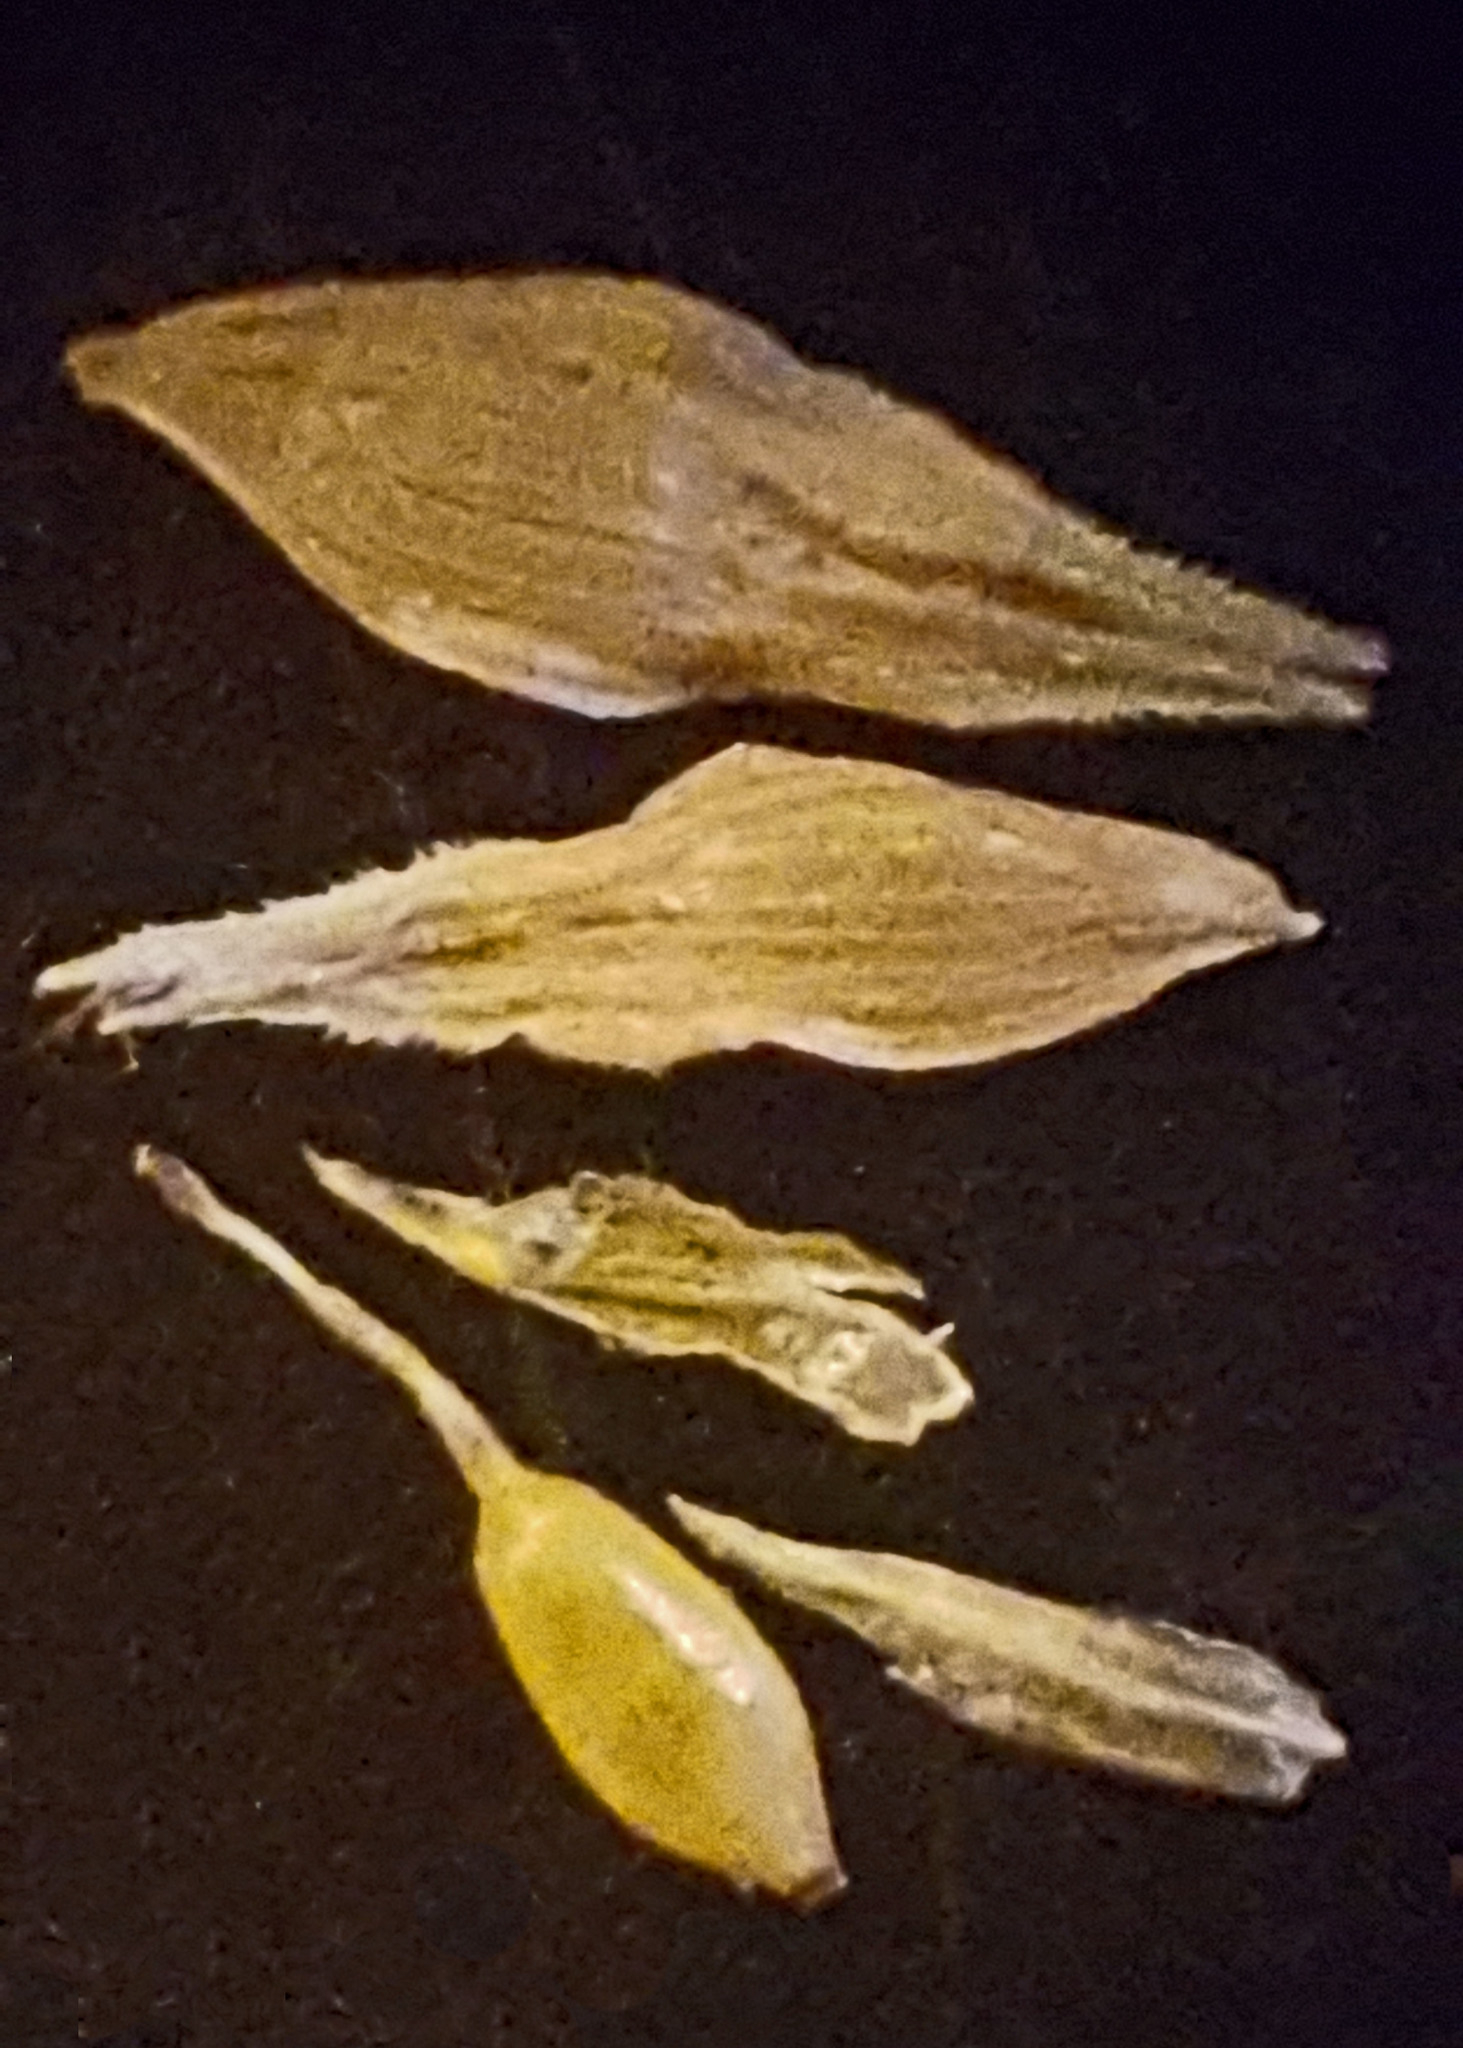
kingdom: Plantae
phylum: Tracheophyta
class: Liliopsida
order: Poales
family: Cyperaceae
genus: Carex
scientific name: Carex cristatella
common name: Crested oval sedge
